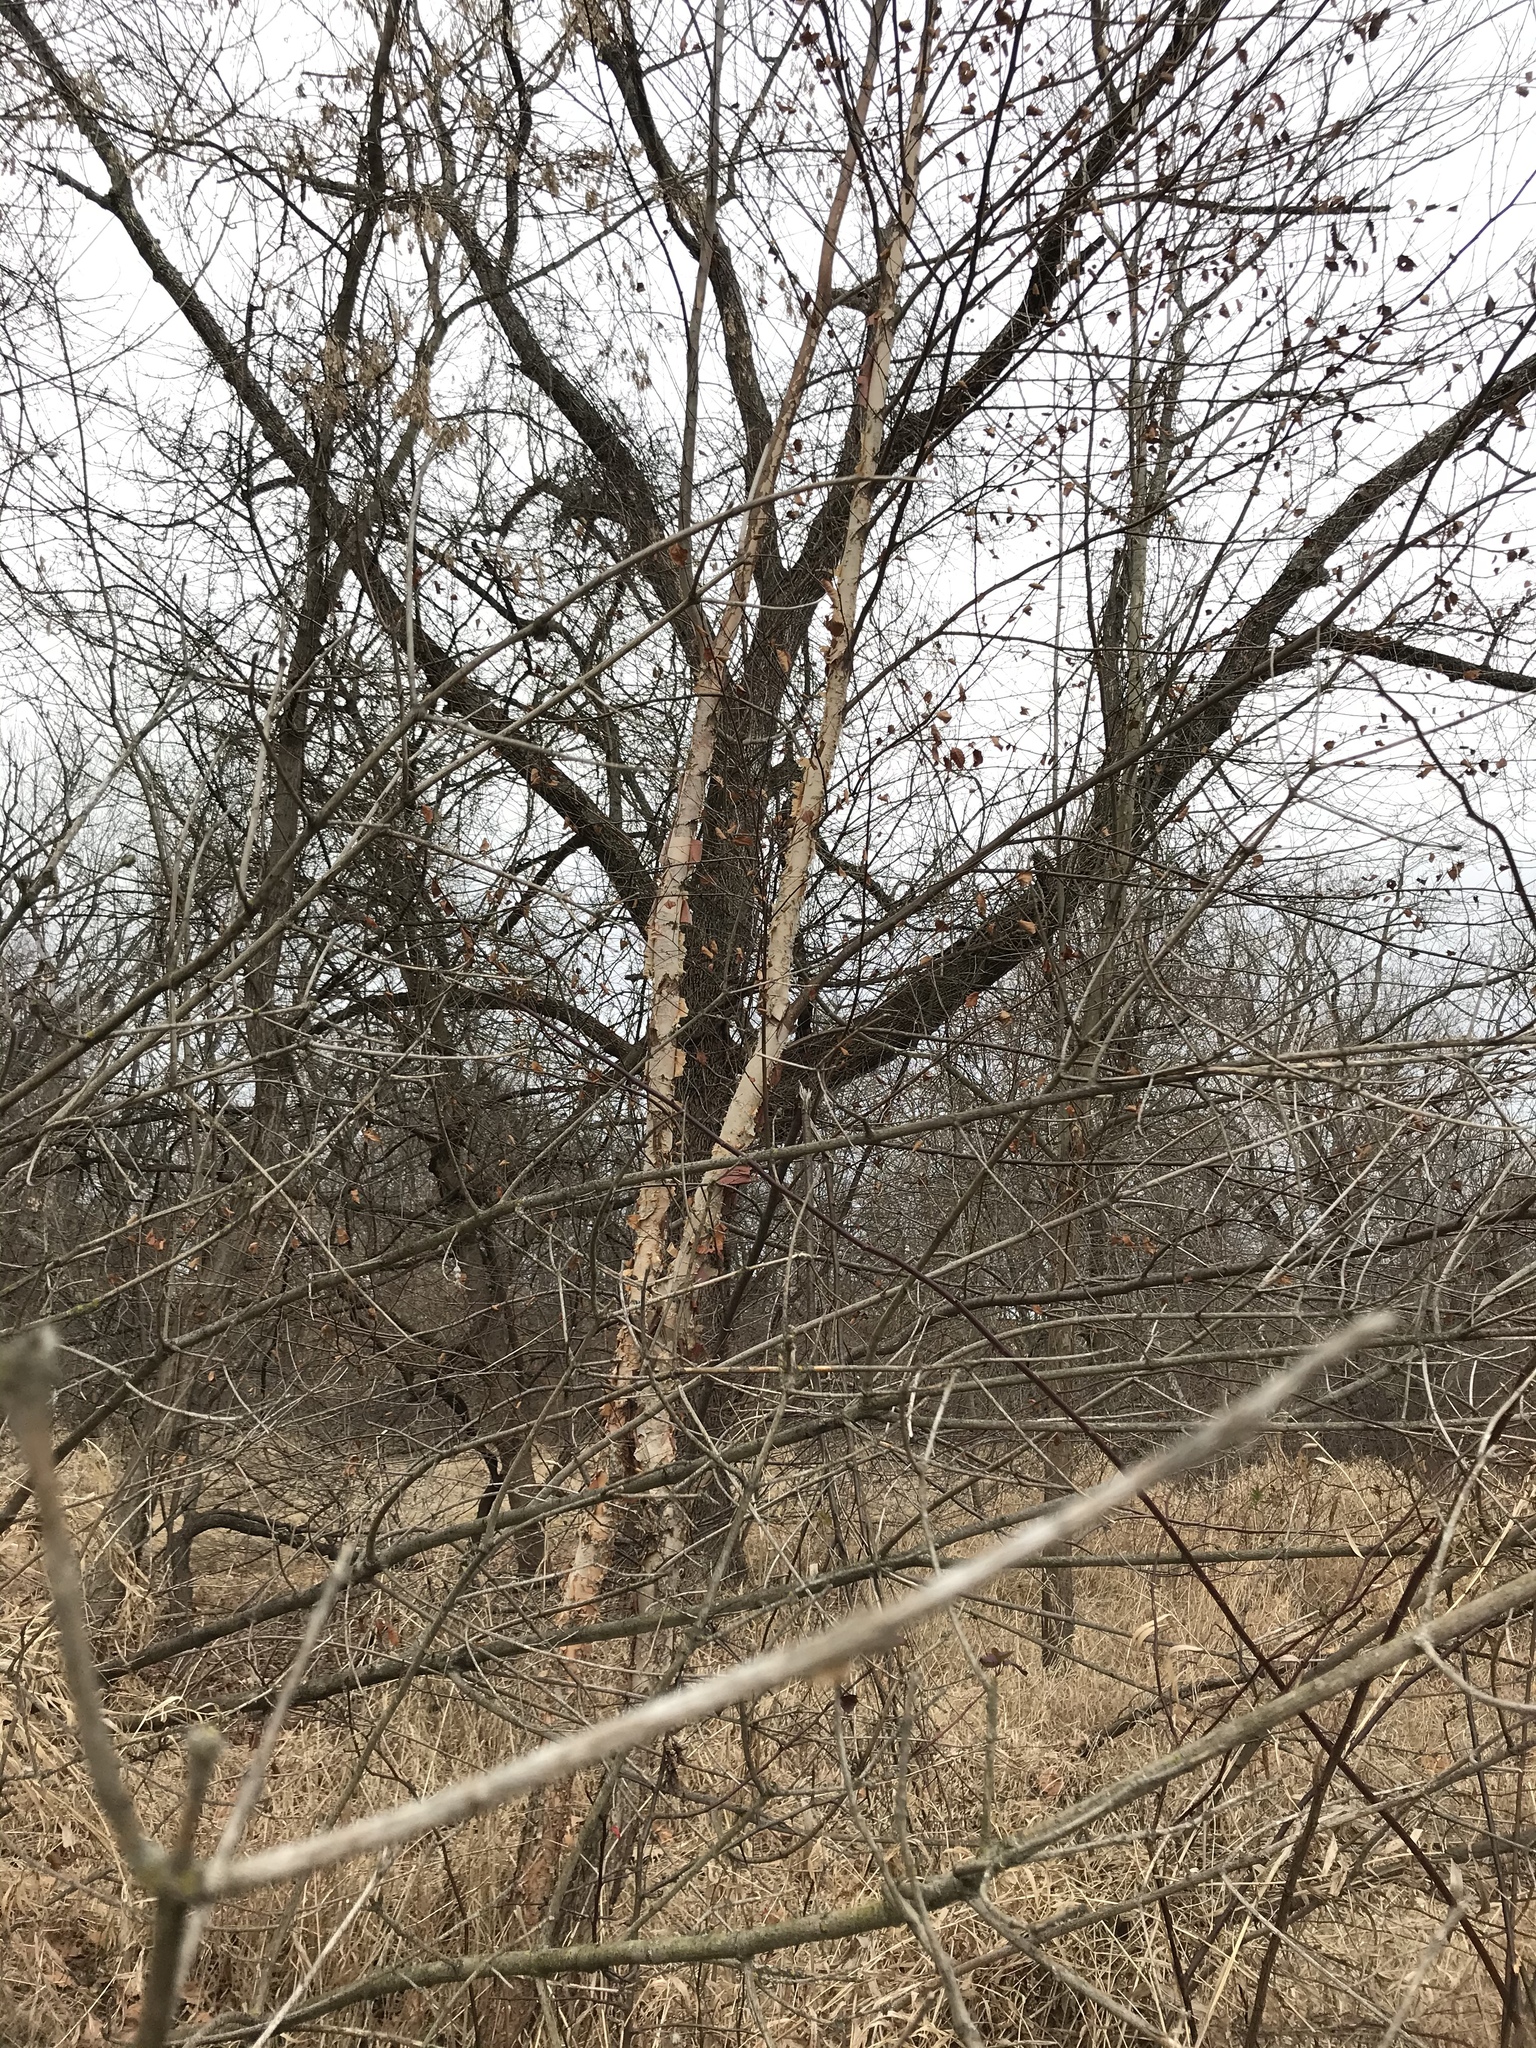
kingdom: Plantae
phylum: Tracheophyta
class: Magnoliopsida
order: Fagales
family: Betulaceae
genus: Betula
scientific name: Betula nigra
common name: Black birch
